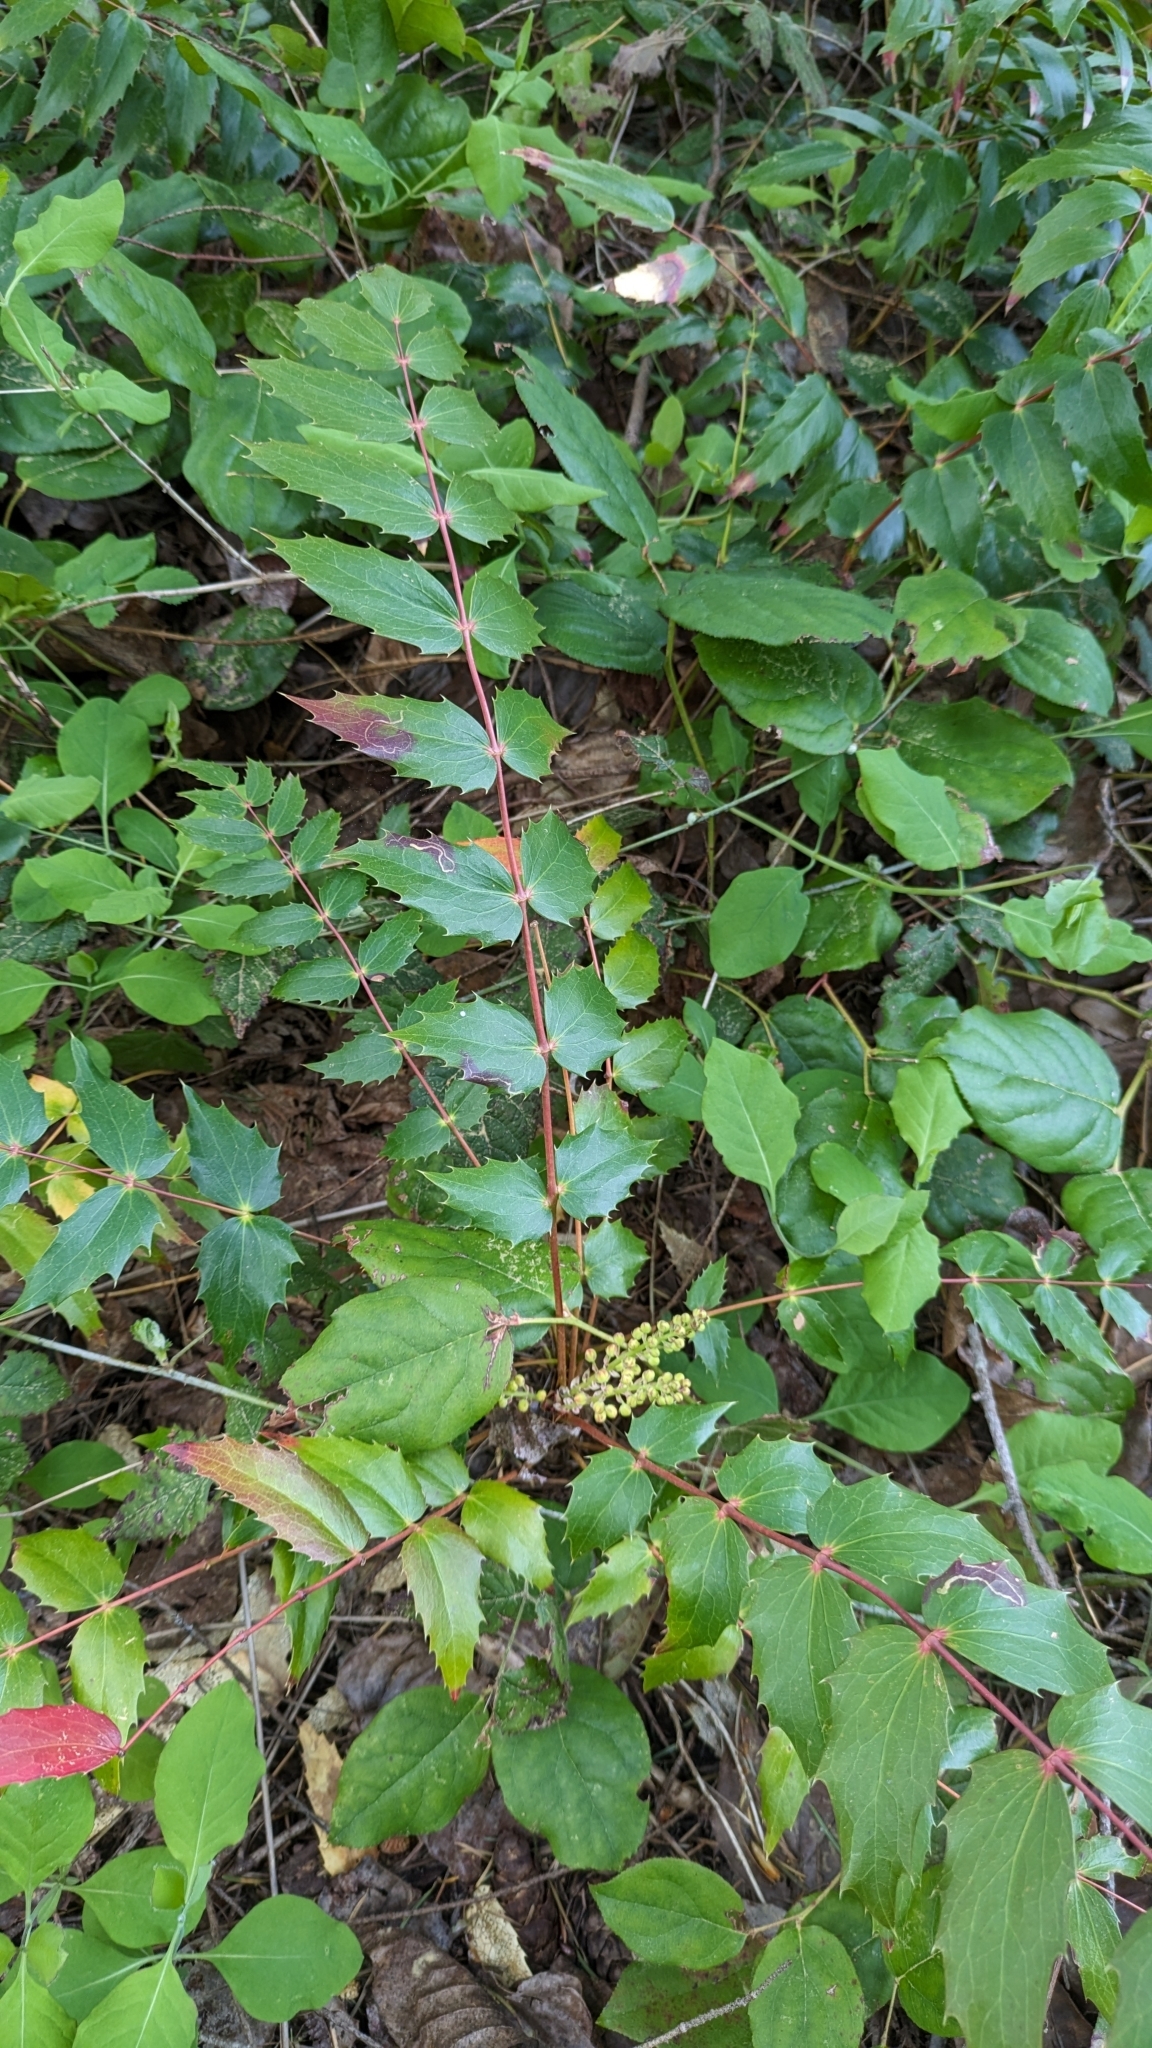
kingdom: Plantae
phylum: Tracheophyta
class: Magnoliopsida
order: Ranunculales
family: Berberidaceae
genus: Mahonia
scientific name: Mahonia nervosa
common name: Cascade oregon-grape
